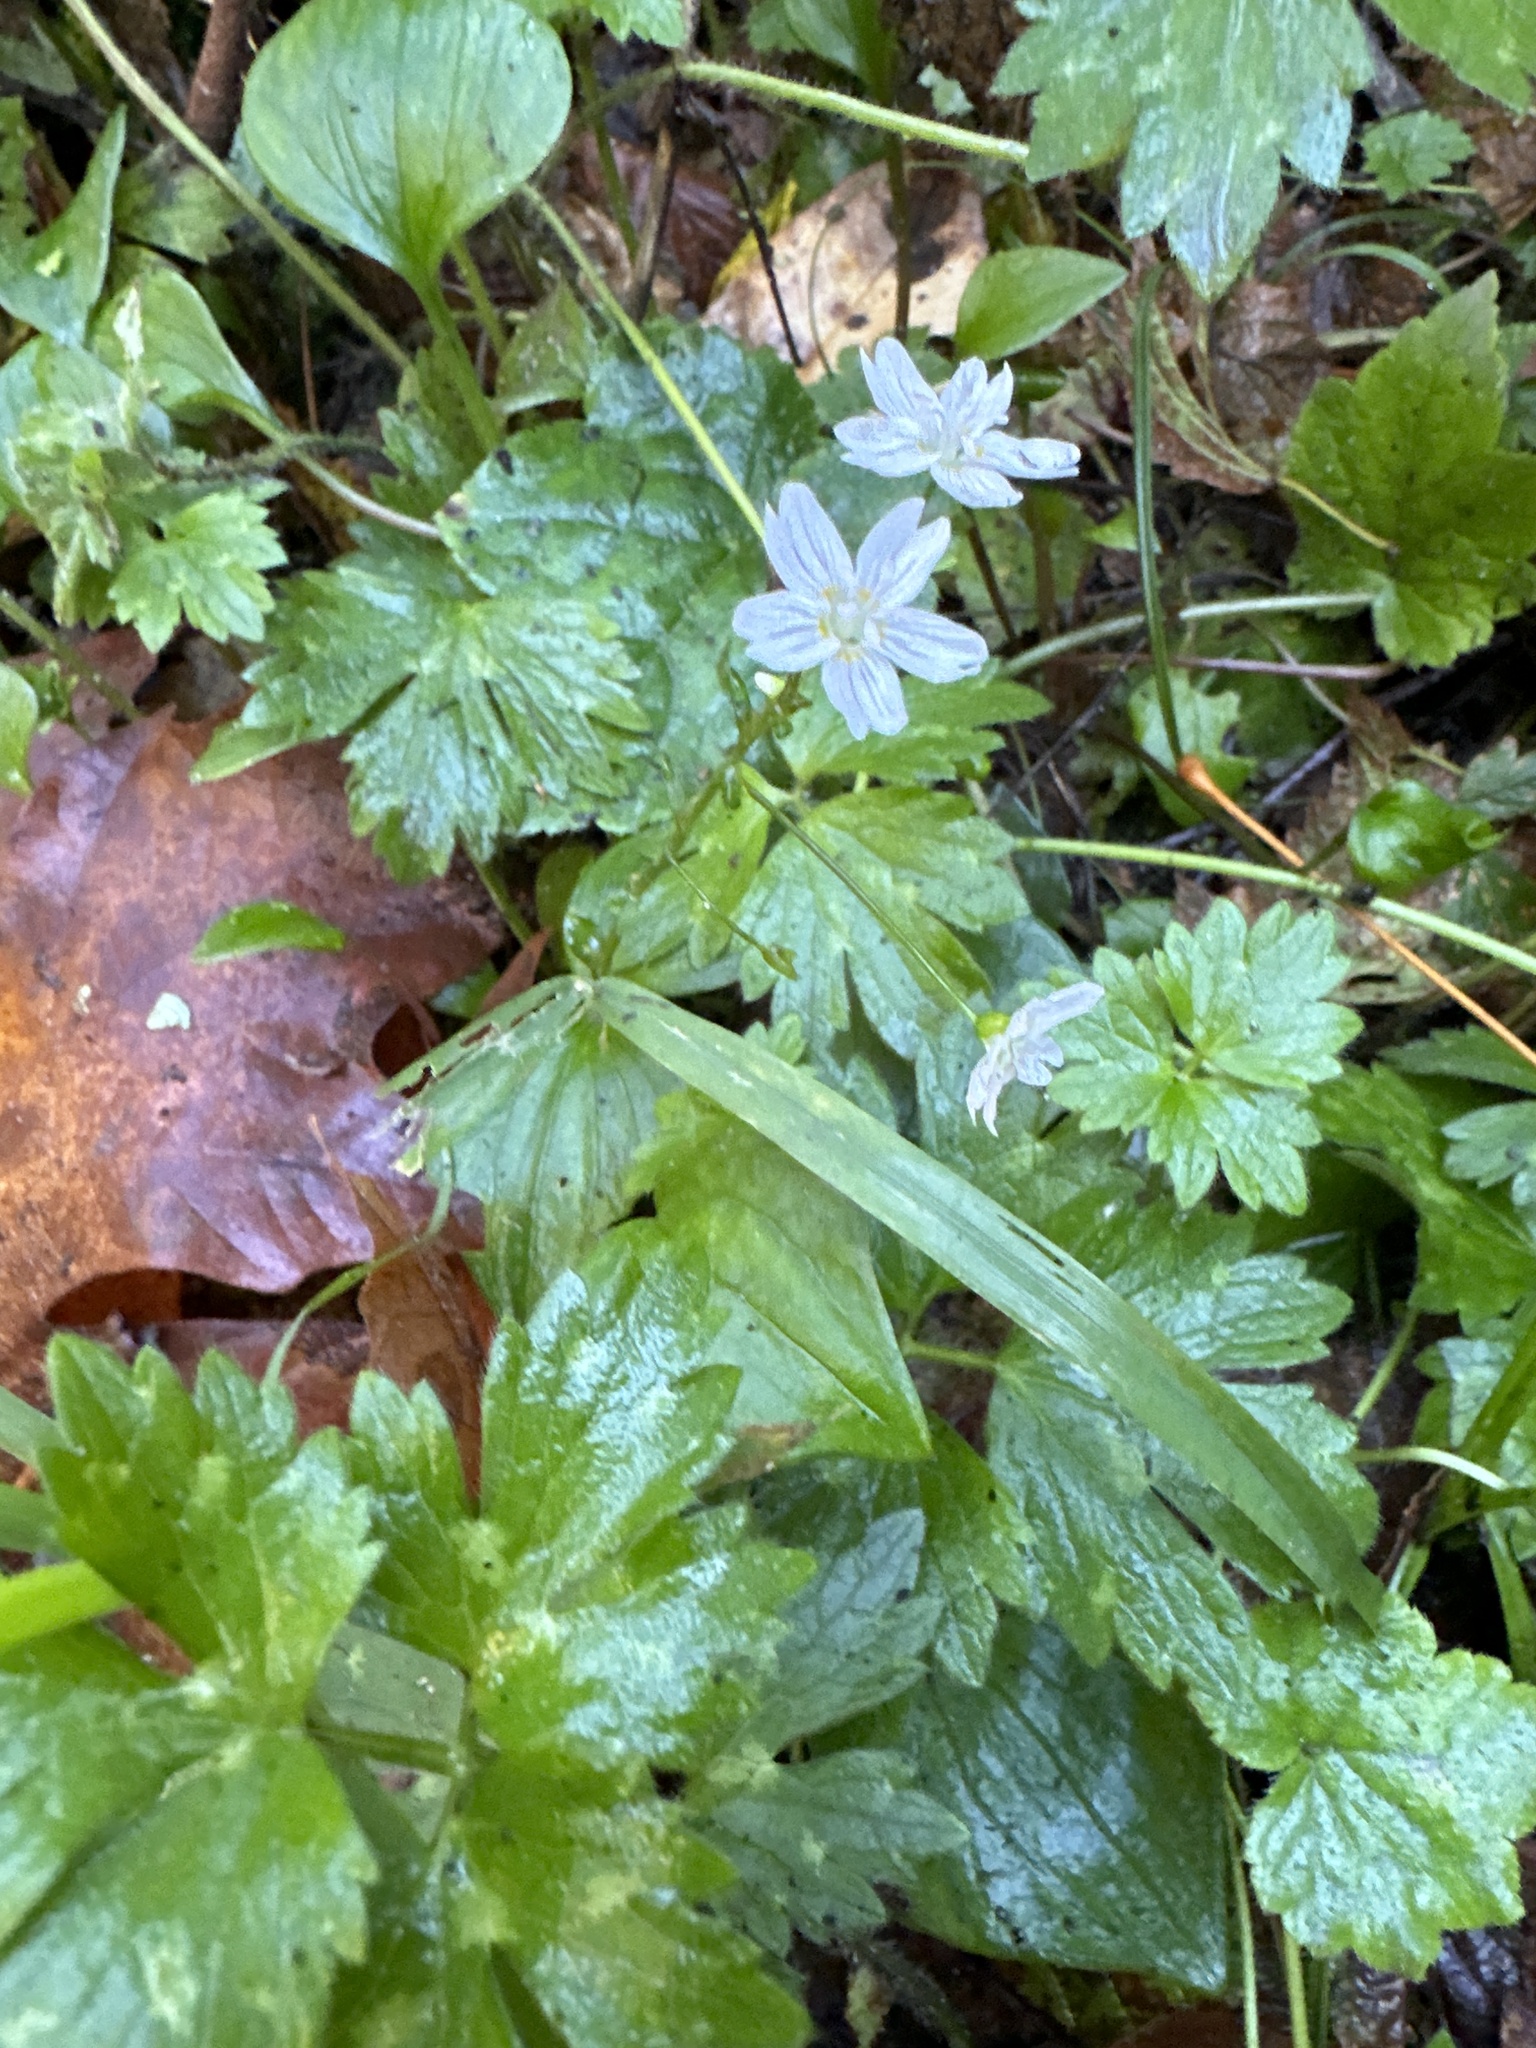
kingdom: Plantae
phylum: Tracheophyta
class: Magnoliopsida
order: Caryophyllales
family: Montiaceae
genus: Claytonia
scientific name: Claytonia sibirica
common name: Pink purslane
